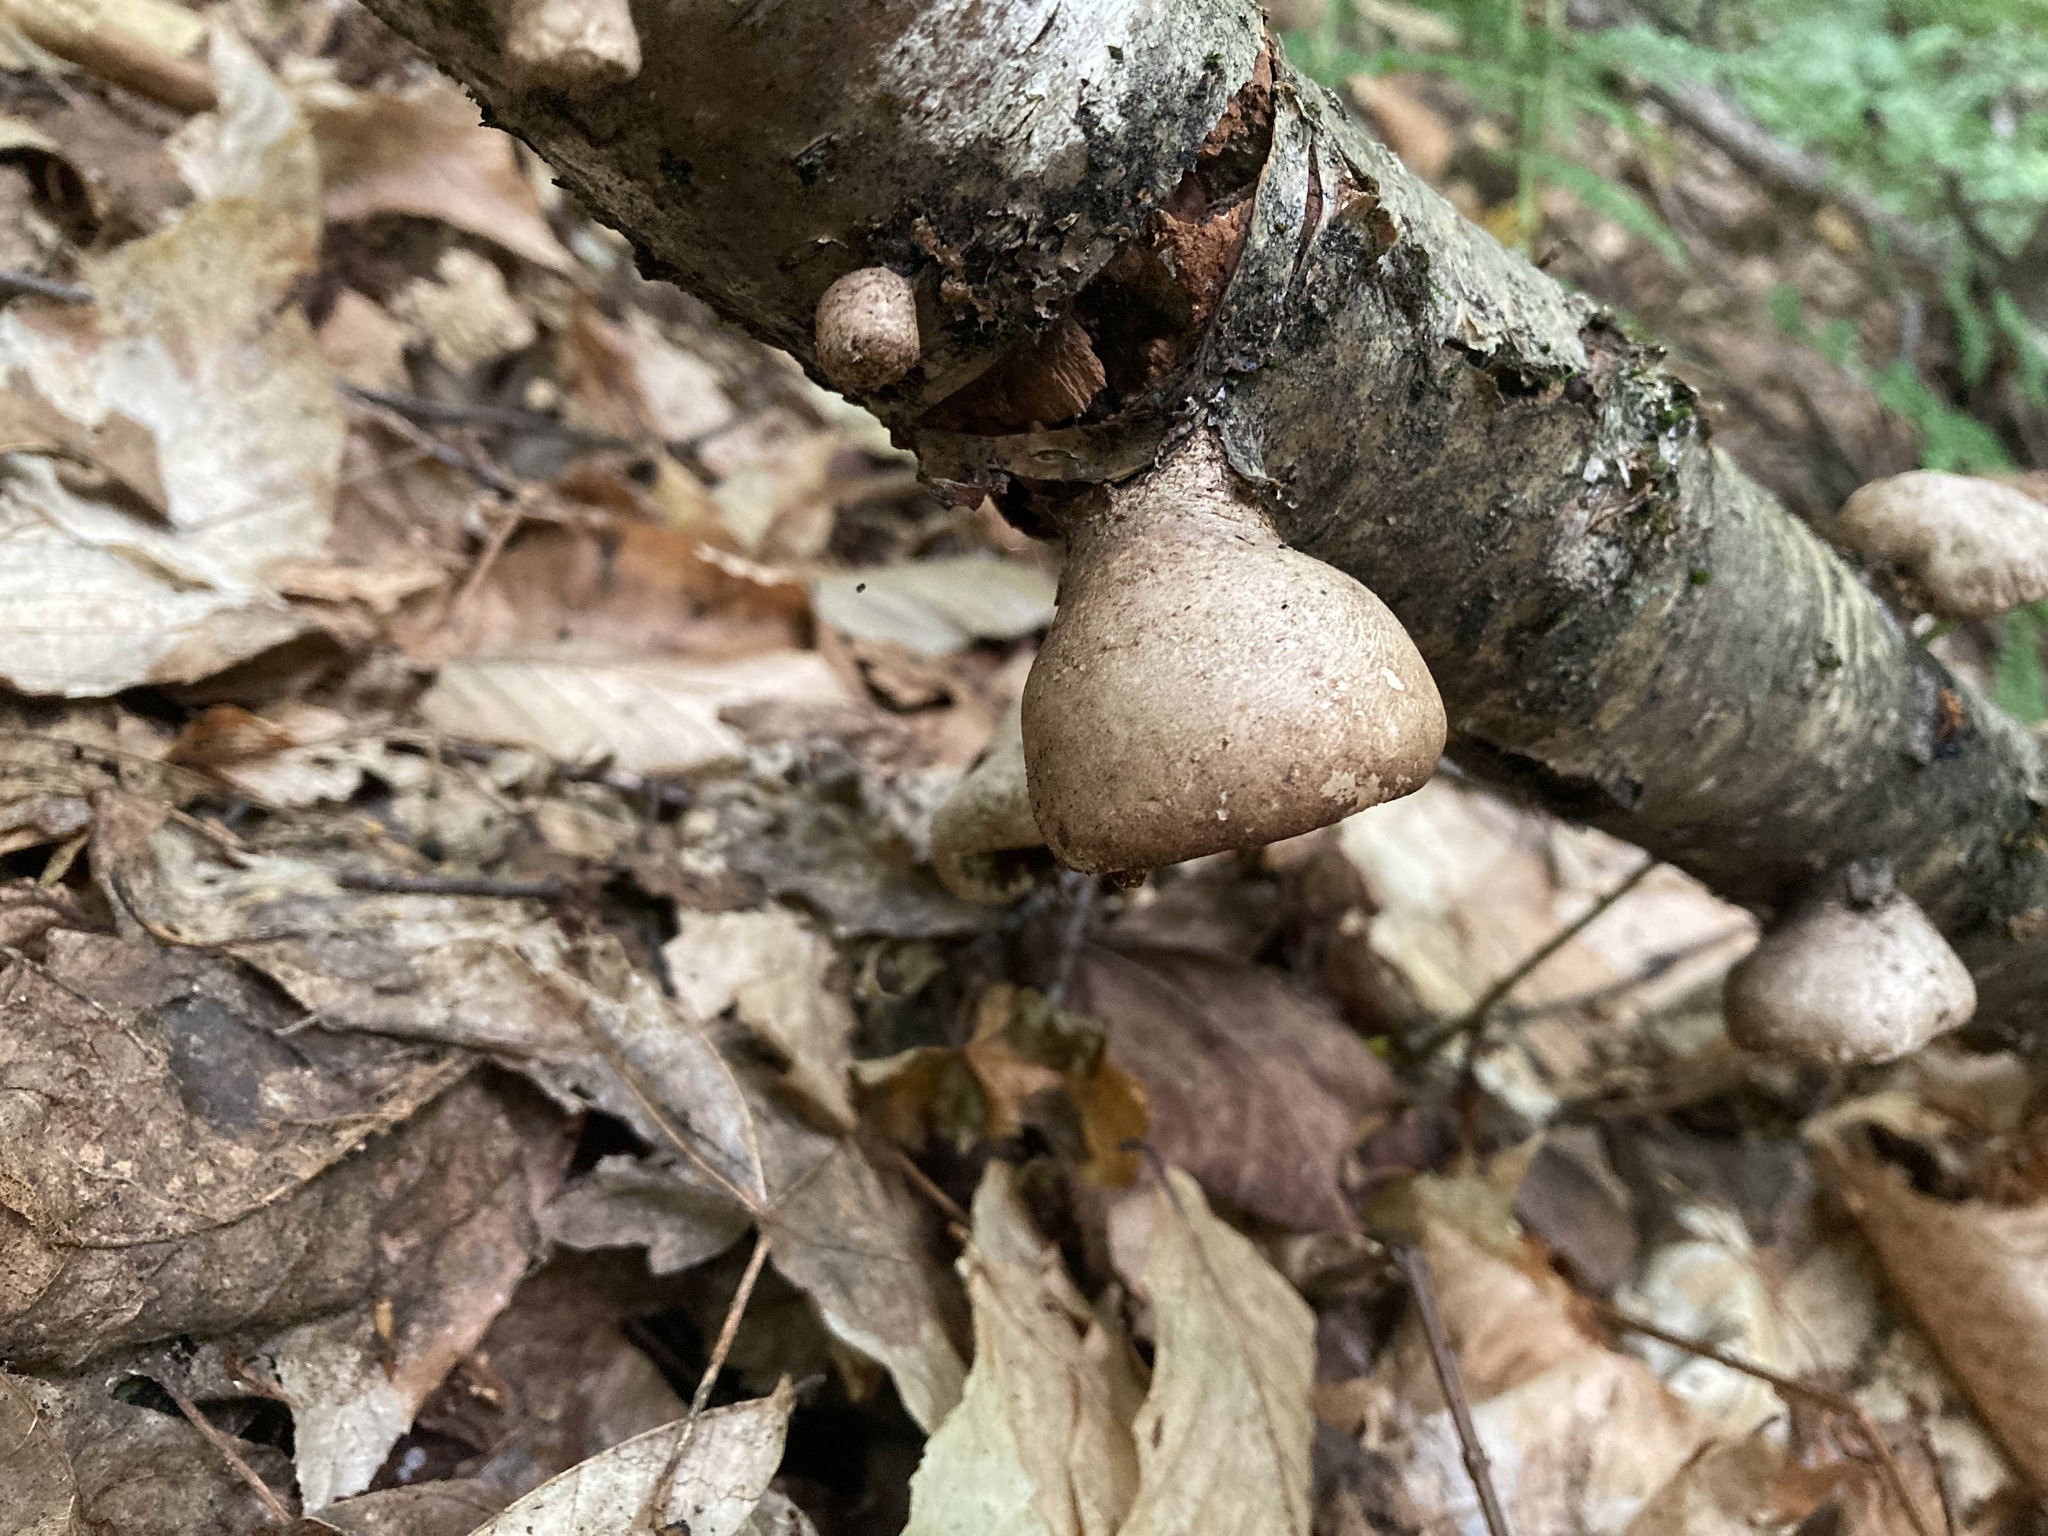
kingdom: Fungi
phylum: Basidiomycota
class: Agaricomycetes
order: Polyporales
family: Fomitopsidaceae
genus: Fomitopsis
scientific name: Fomitopsis betulina
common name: Birch polypore
